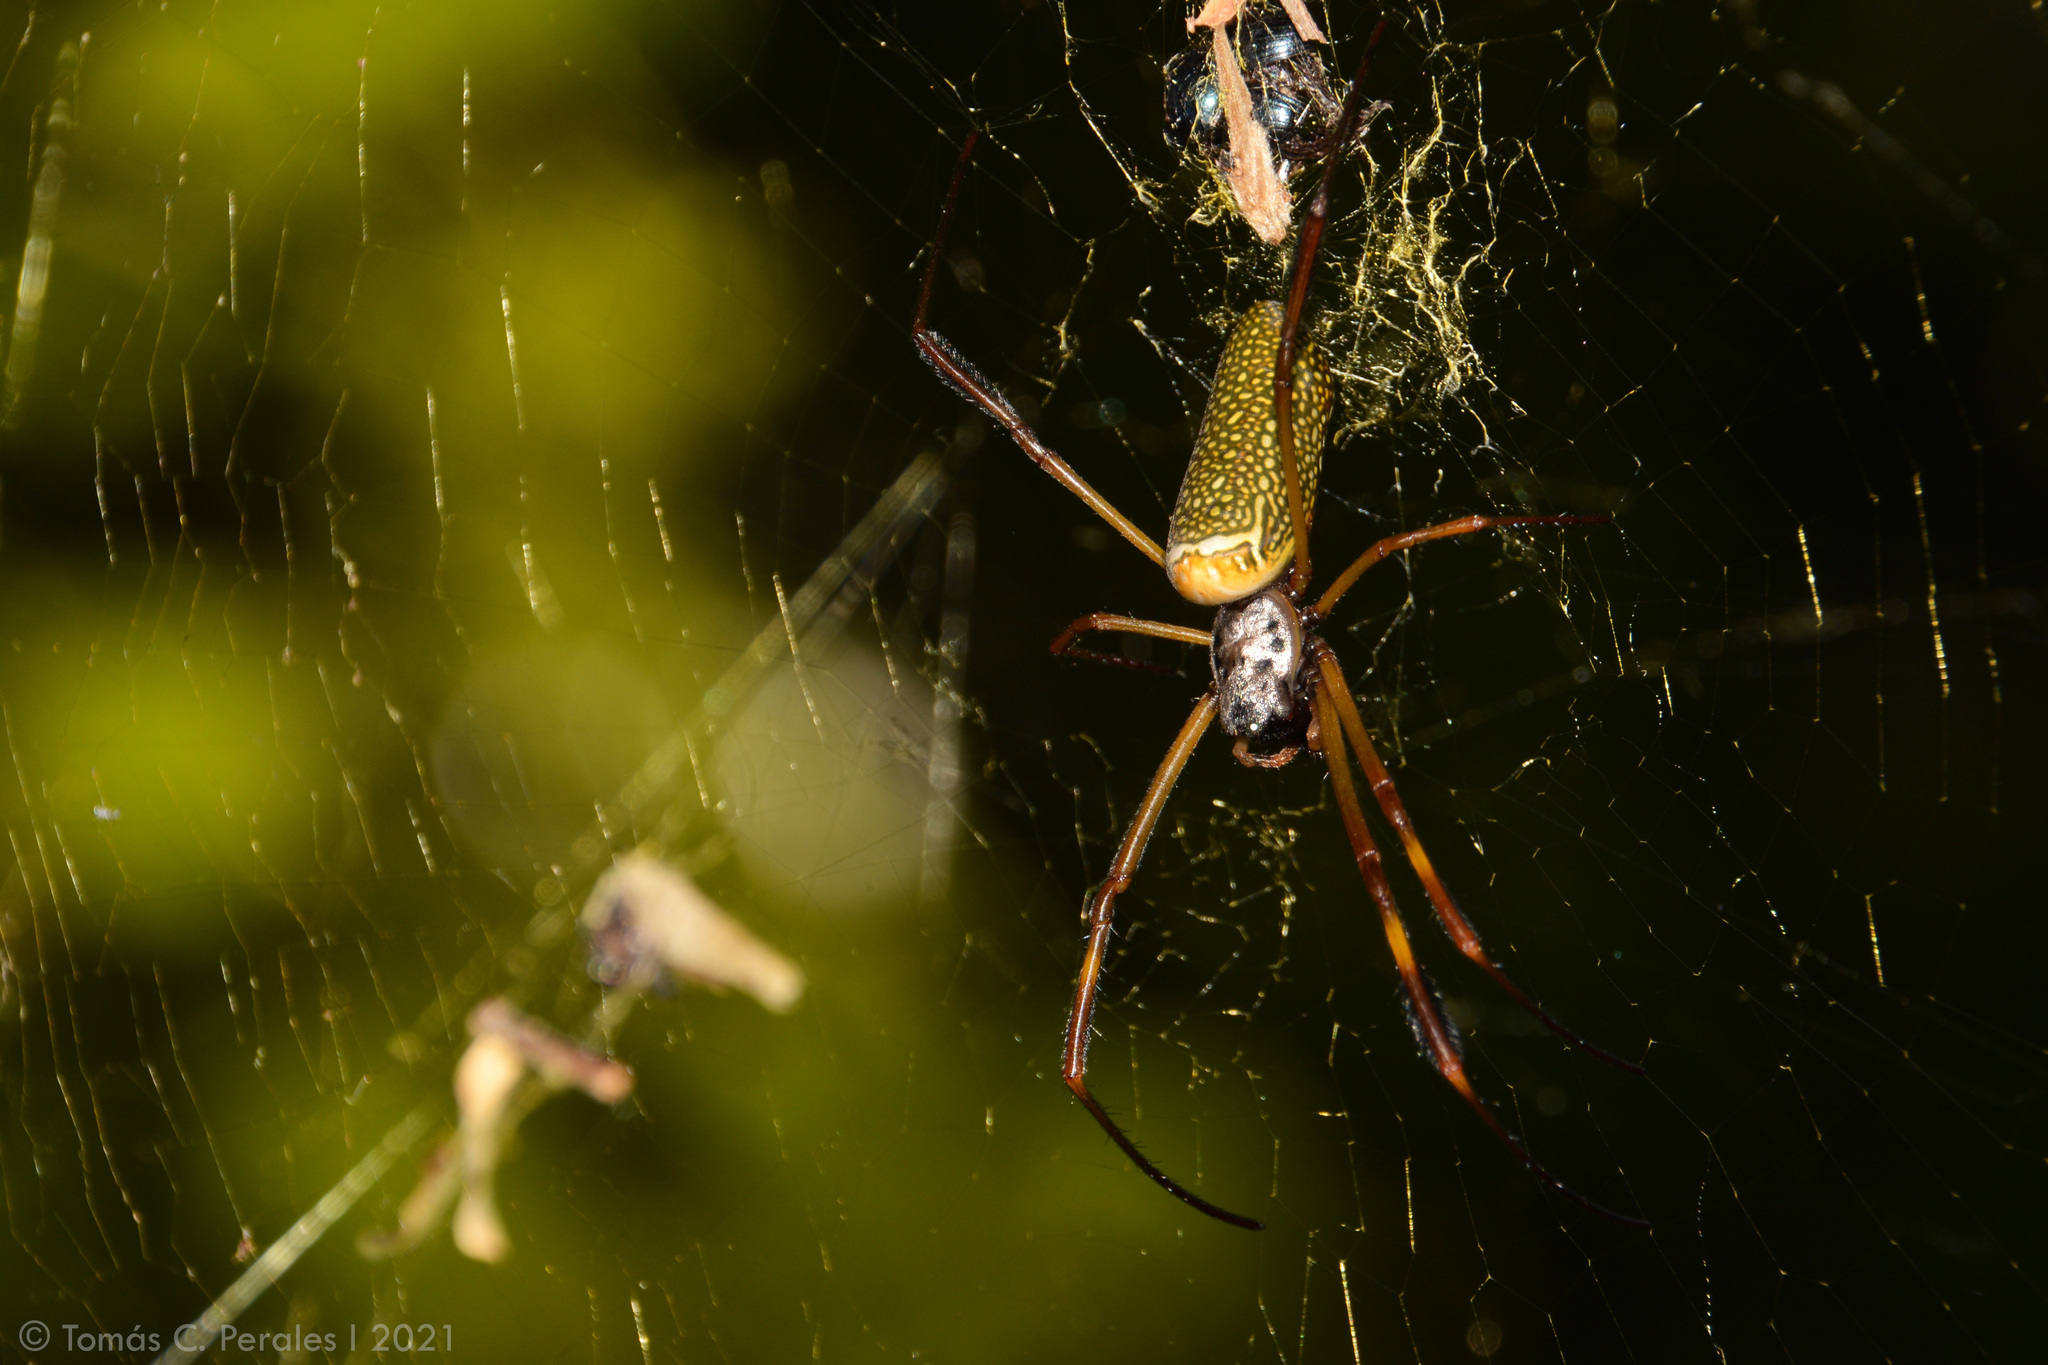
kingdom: Animalia
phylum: Arthropoda
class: Arachnida
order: Araneae
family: Araneidae
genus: Trichonephila
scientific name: Trichonephila clavipes
